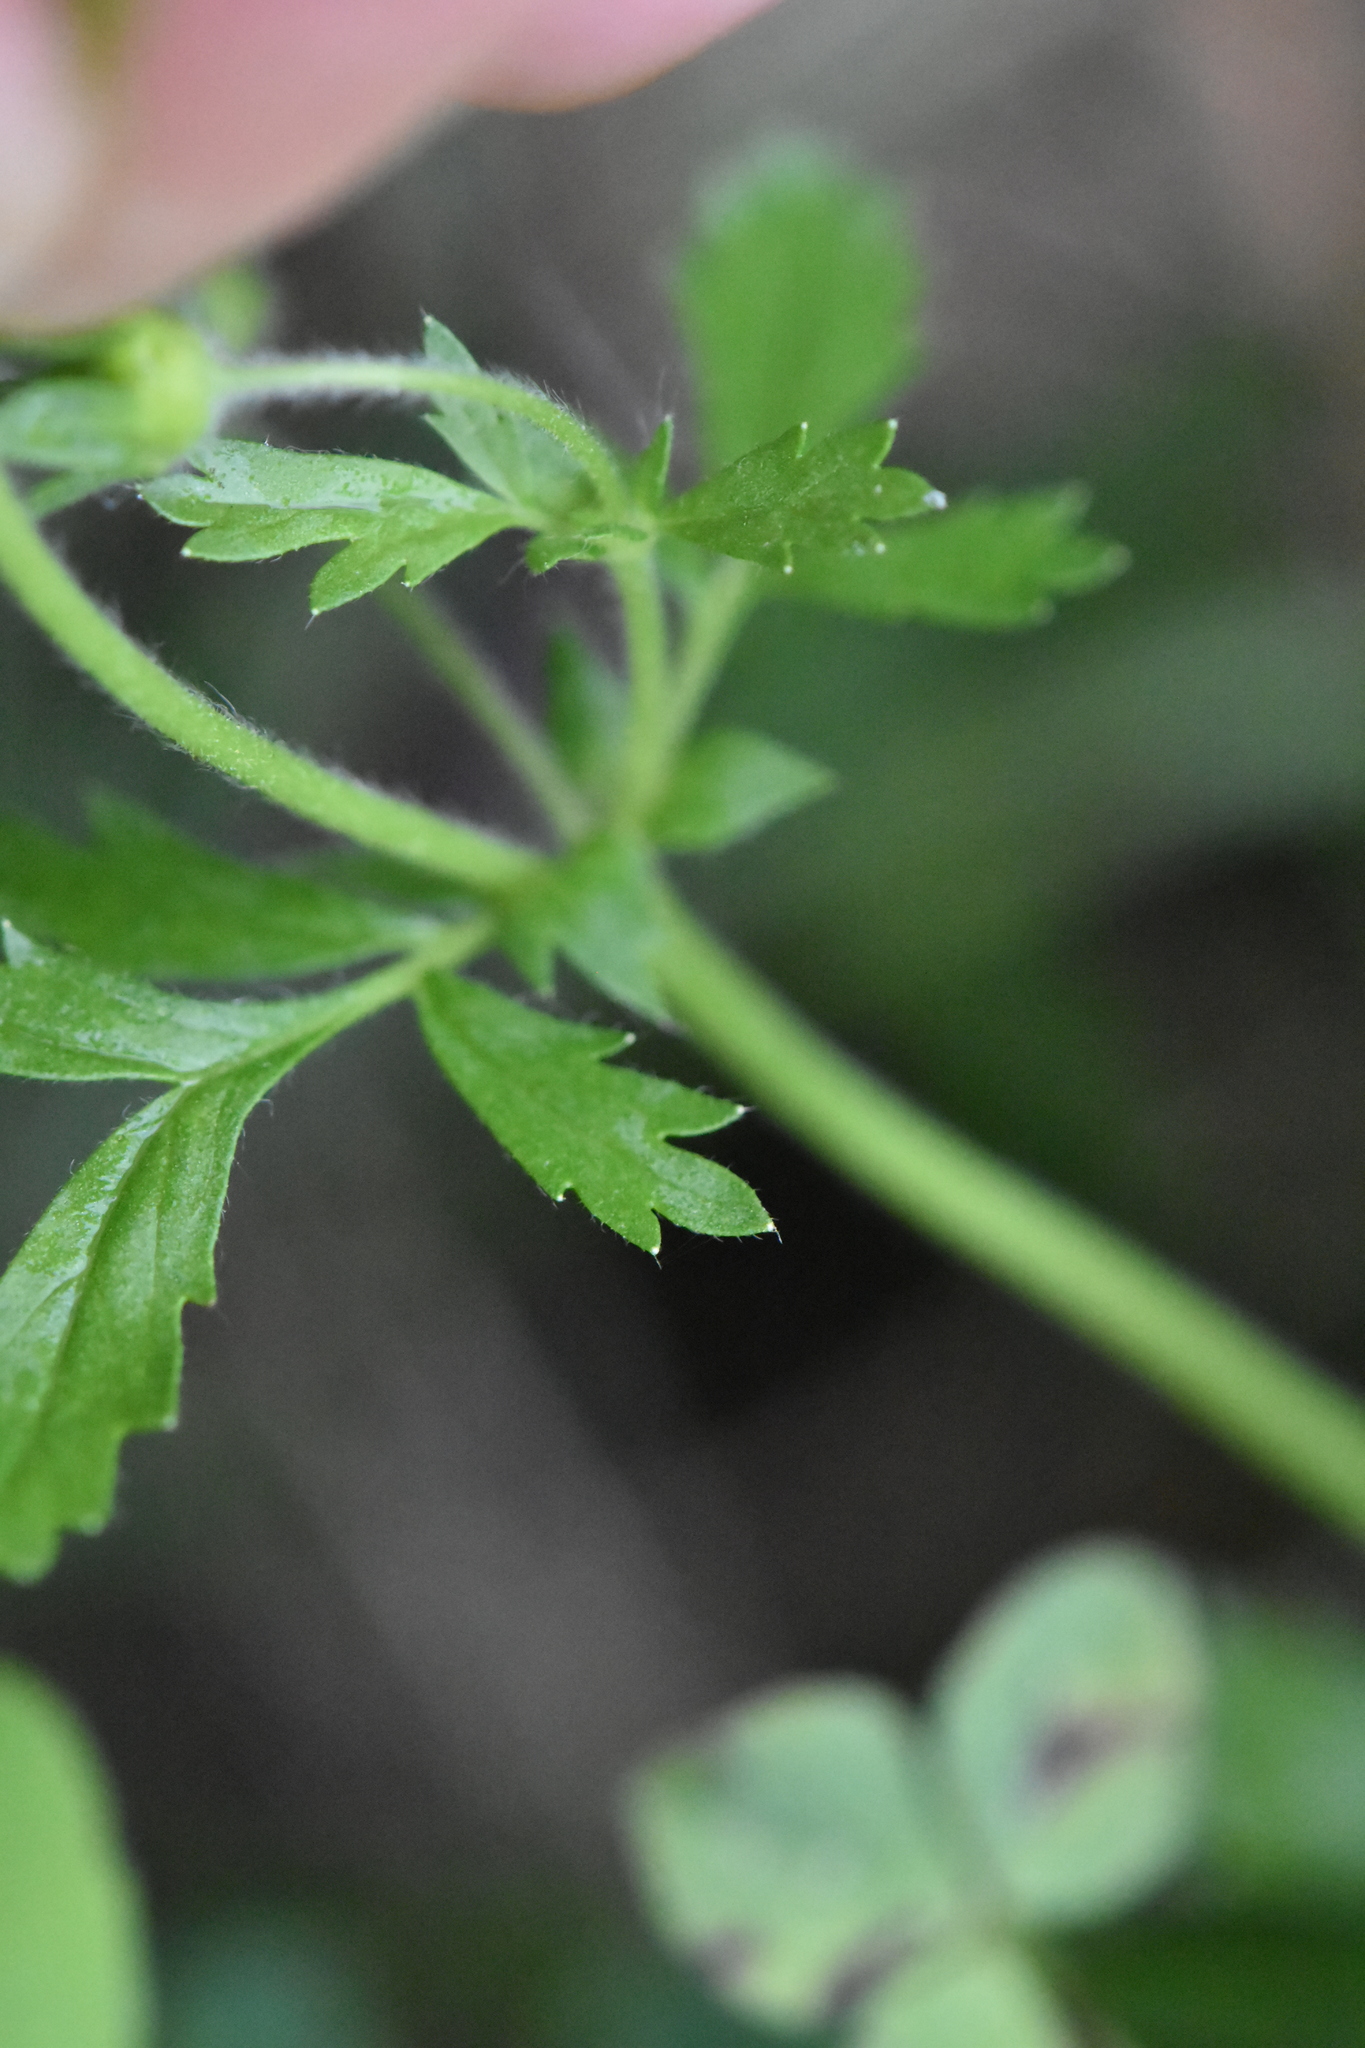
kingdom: Plantae
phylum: Tracheophyta
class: Magnoliopsida
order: Rosales
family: Rosaceae
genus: Potentilla
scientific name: Potentilla supina
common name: Prostrate cinquefoil
